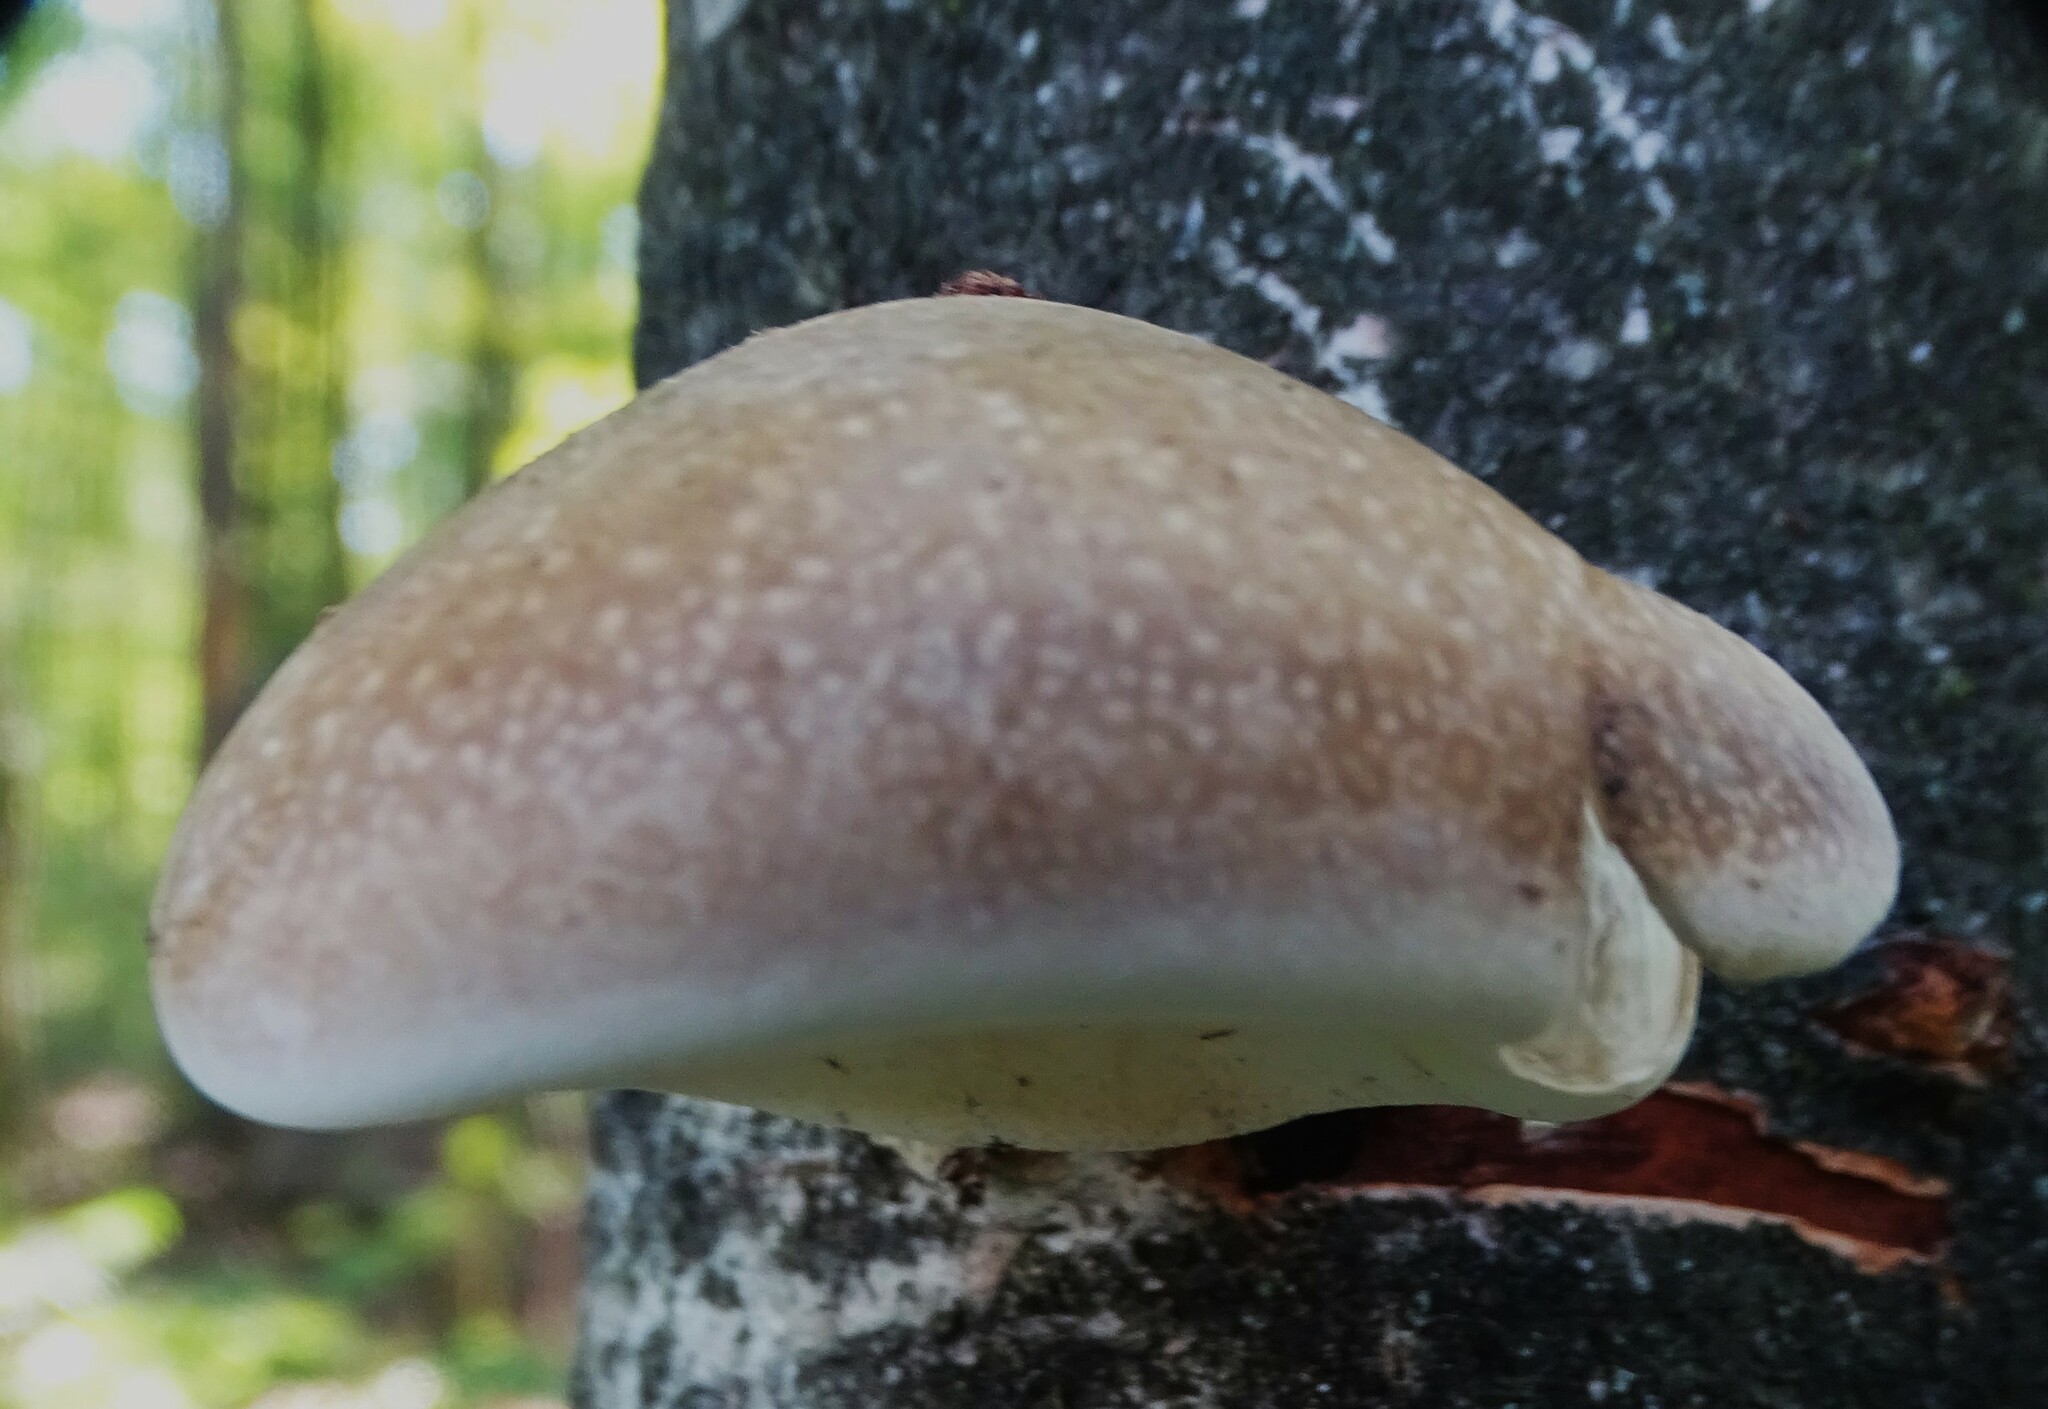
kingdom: Fungi
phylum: Basidiomycota
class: Agaricomycetes
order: Polyporales
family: Fomitopsidaceae
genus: Fomitopsis
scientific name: Fomitopsis betulina
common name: Birch polypore
